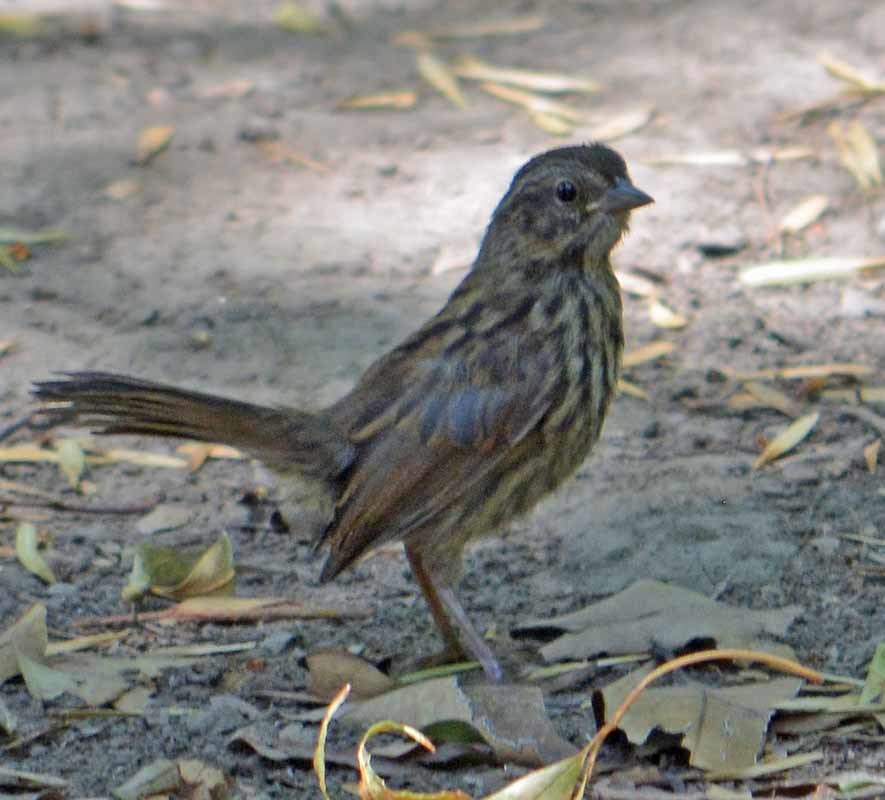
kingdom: Animalia
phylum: Chordata
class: Aves
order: Passeriformes
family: Passerellidae
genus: Melospiza
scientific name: Melospiza melodia
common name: Song sparrow
